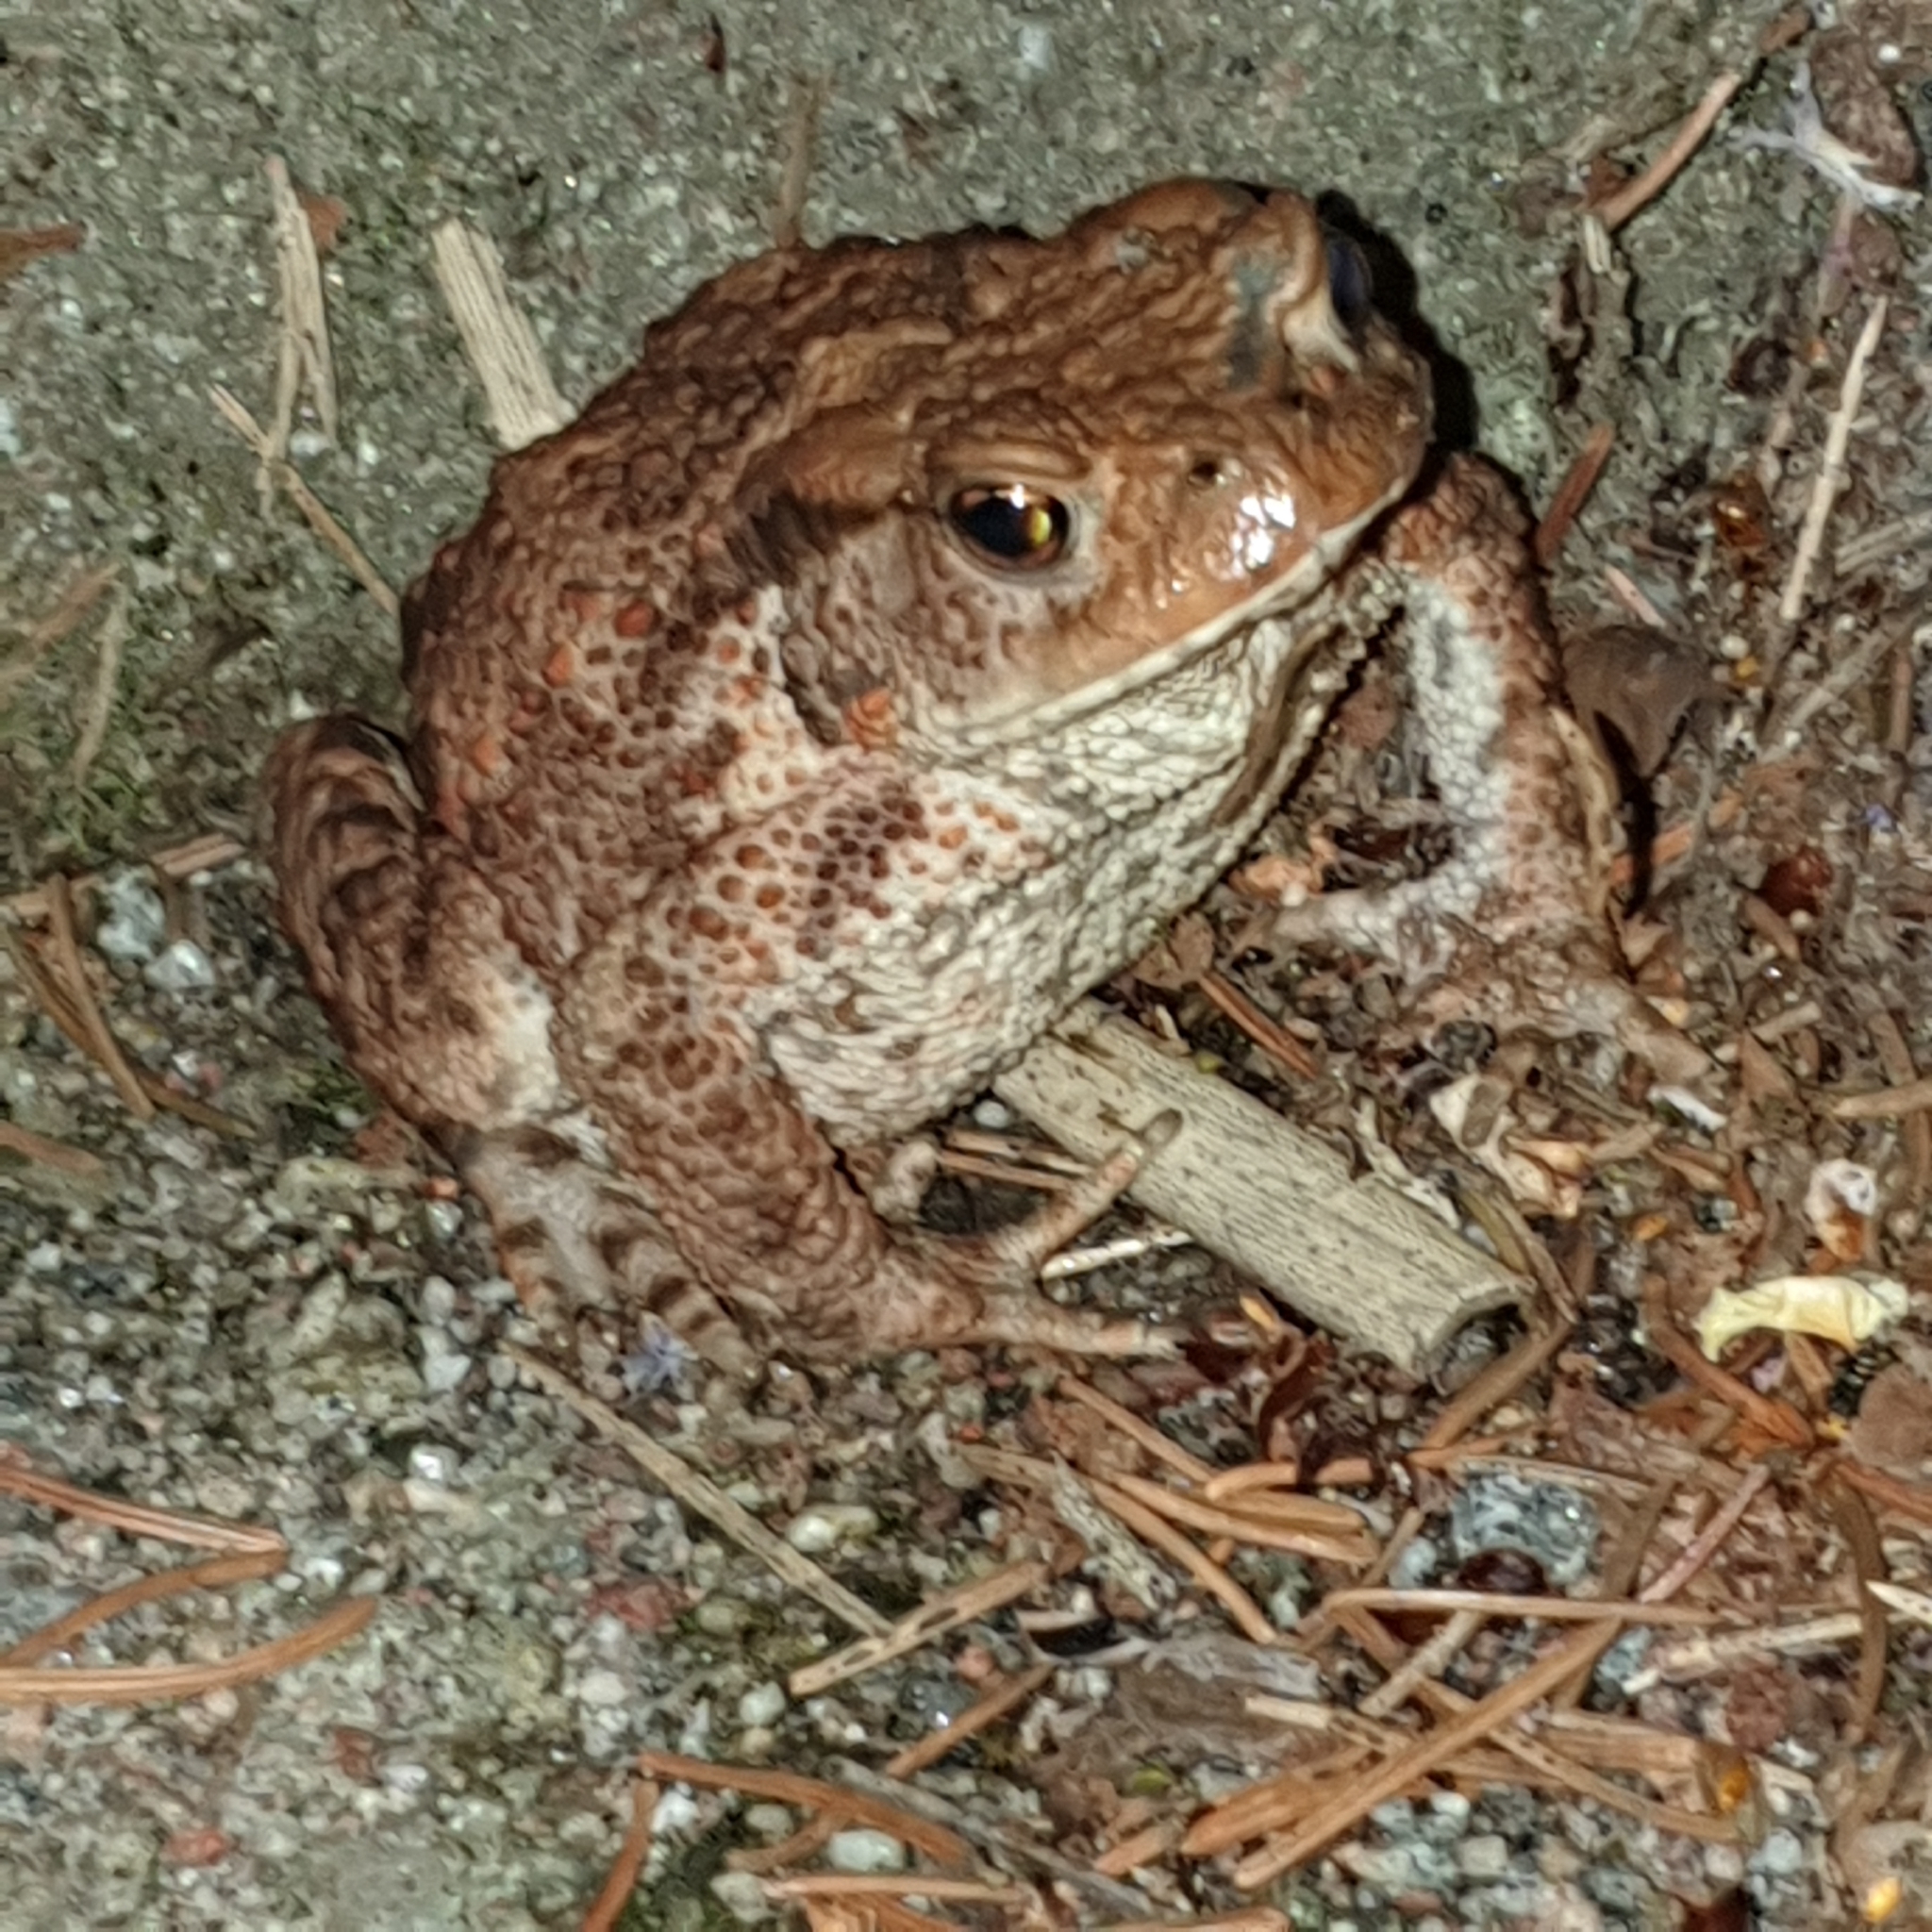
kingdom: Animalia
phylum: Chordata
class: Amphibia
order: Anura
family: Bufonidae
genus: Bufo
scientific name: Bufo bufo
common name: Common toad
